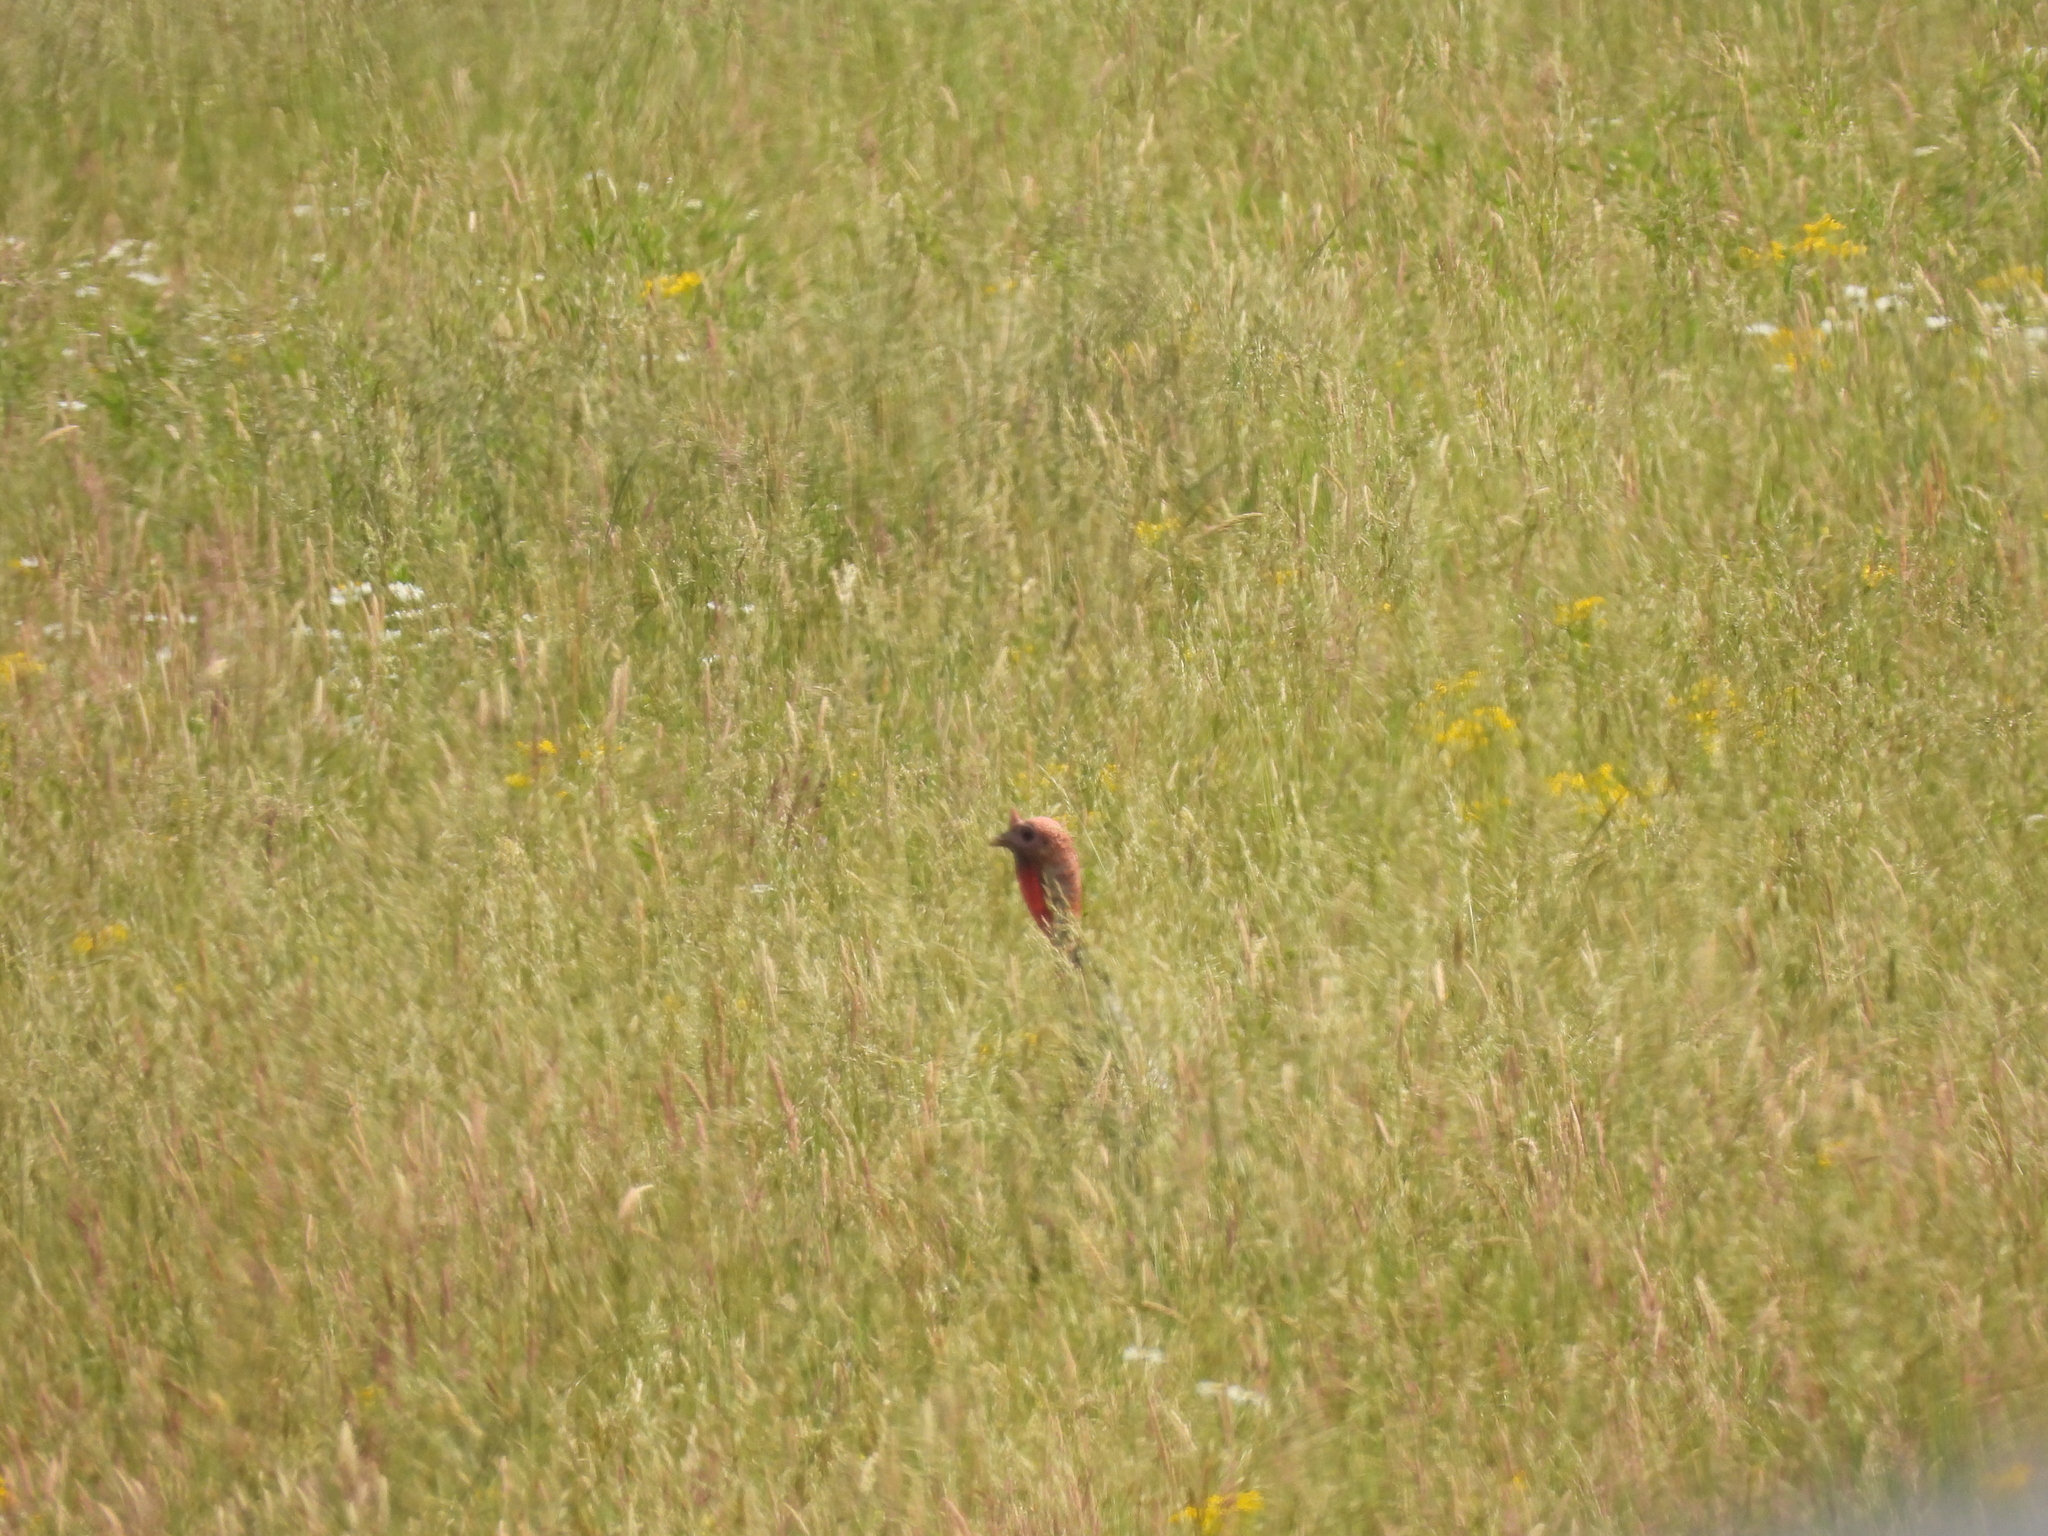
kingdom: Animalia
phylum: Chordata
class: Aves
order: Galliformes
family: Phasianidae
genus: Meleagris
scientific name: Meleagris gallopavo
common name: Wild turkey
